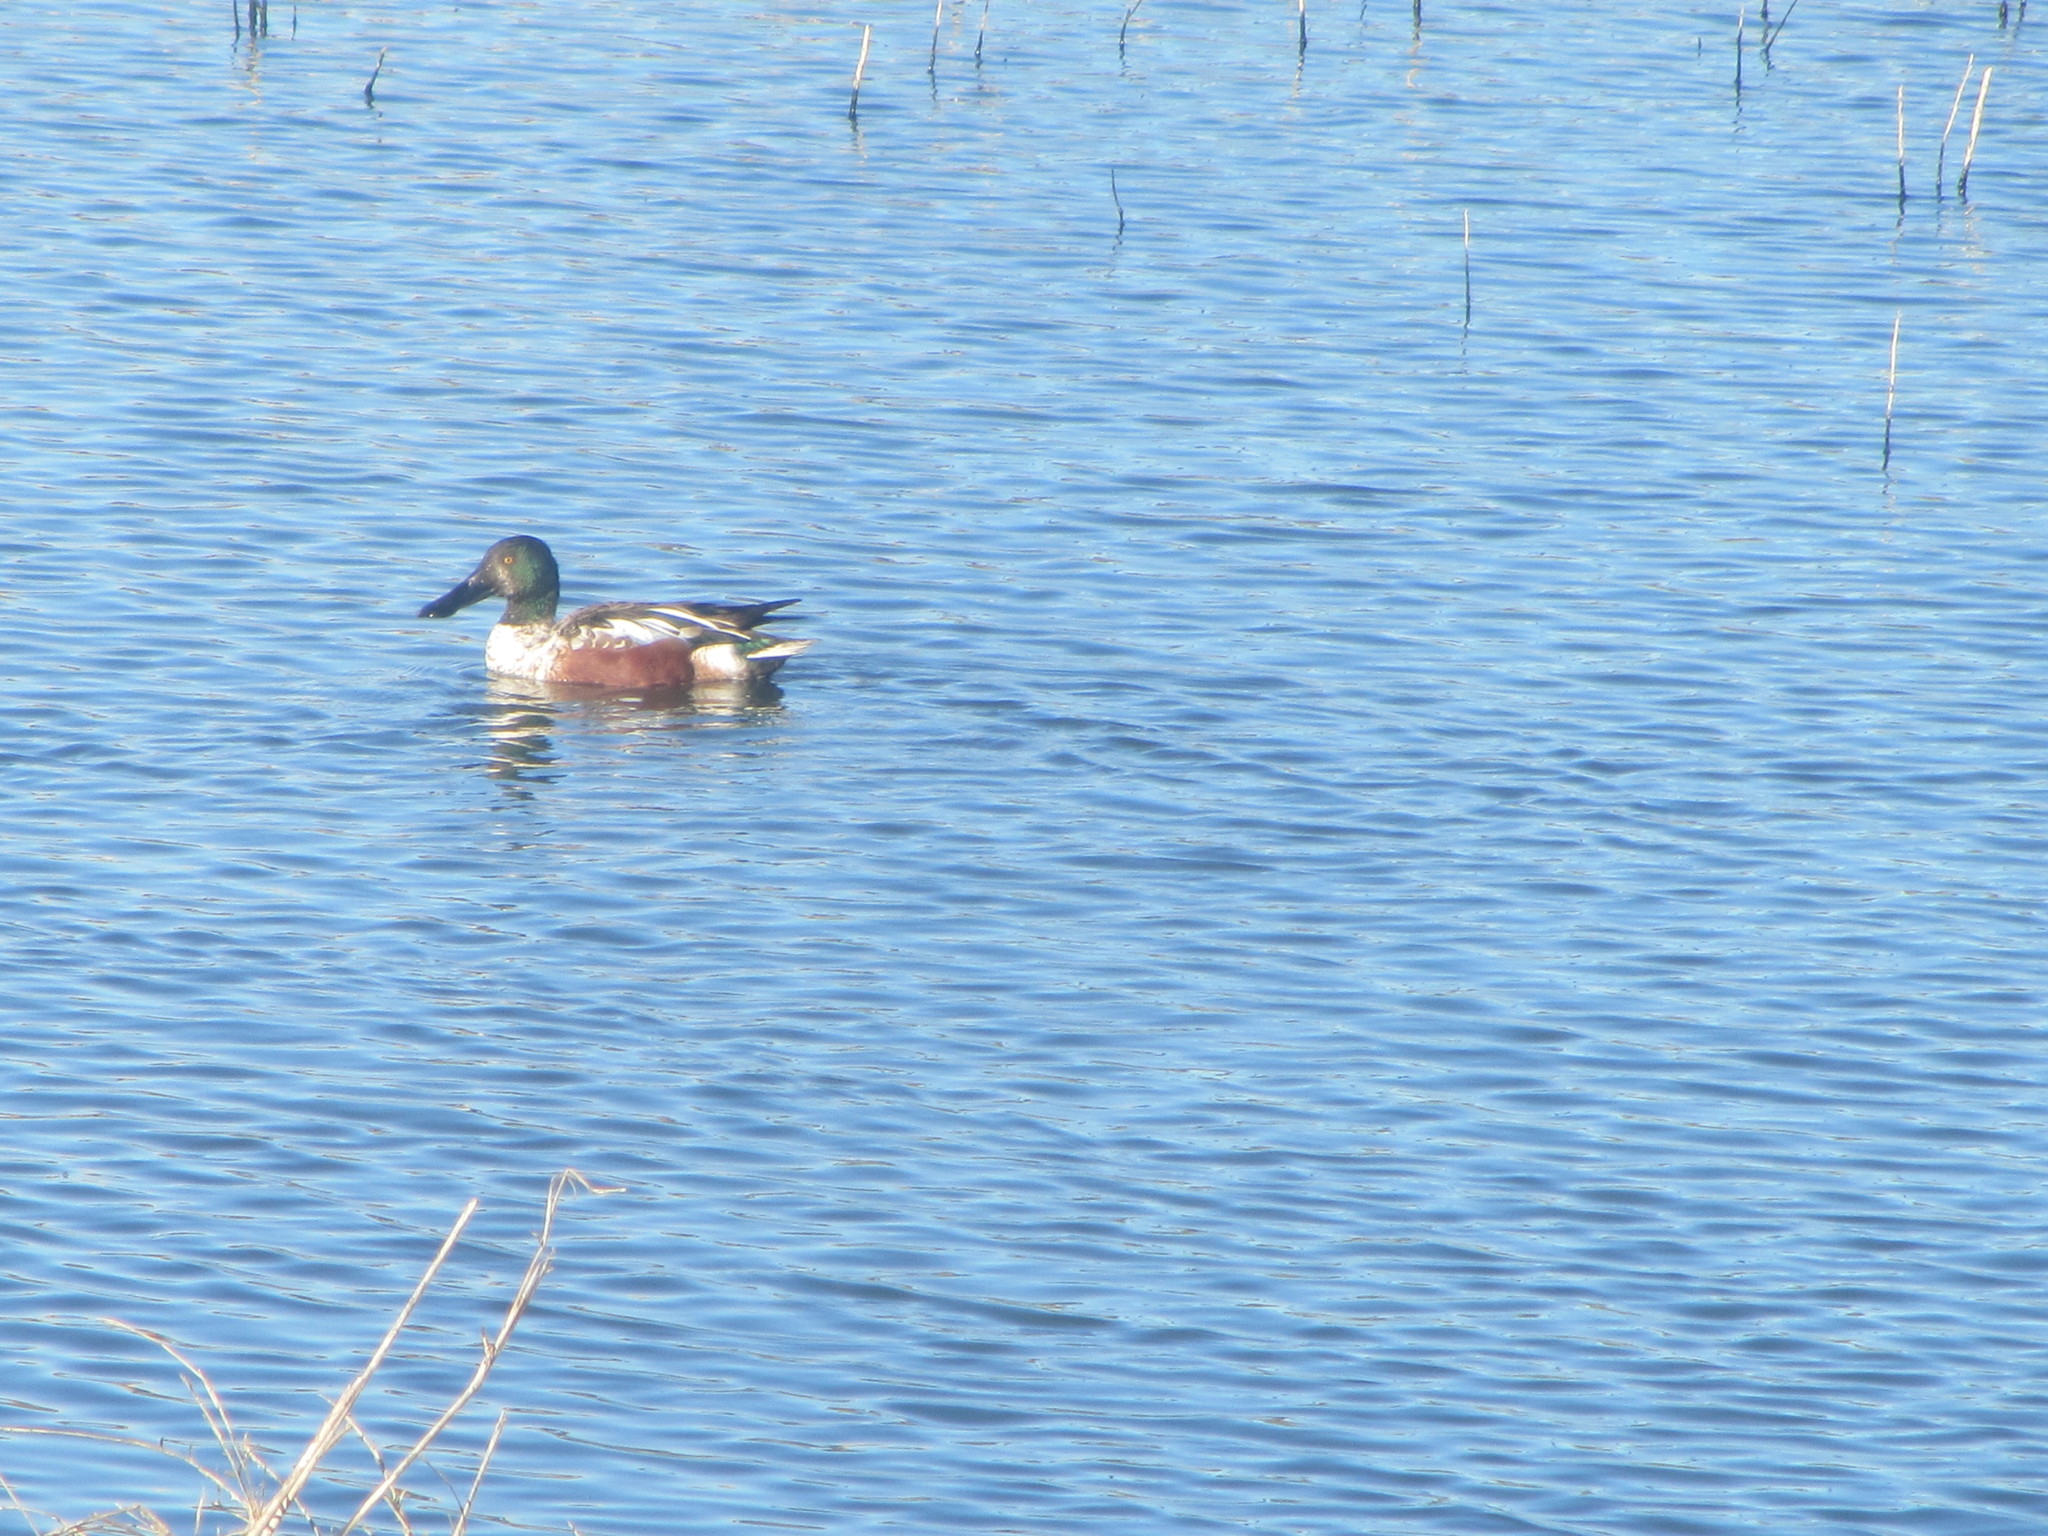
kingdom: Animalia
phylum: Chordata
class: Aves
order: Anseriformes
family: Anatidae
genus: Spatula
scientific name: Spatula clypeata
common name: Northern shoveler
